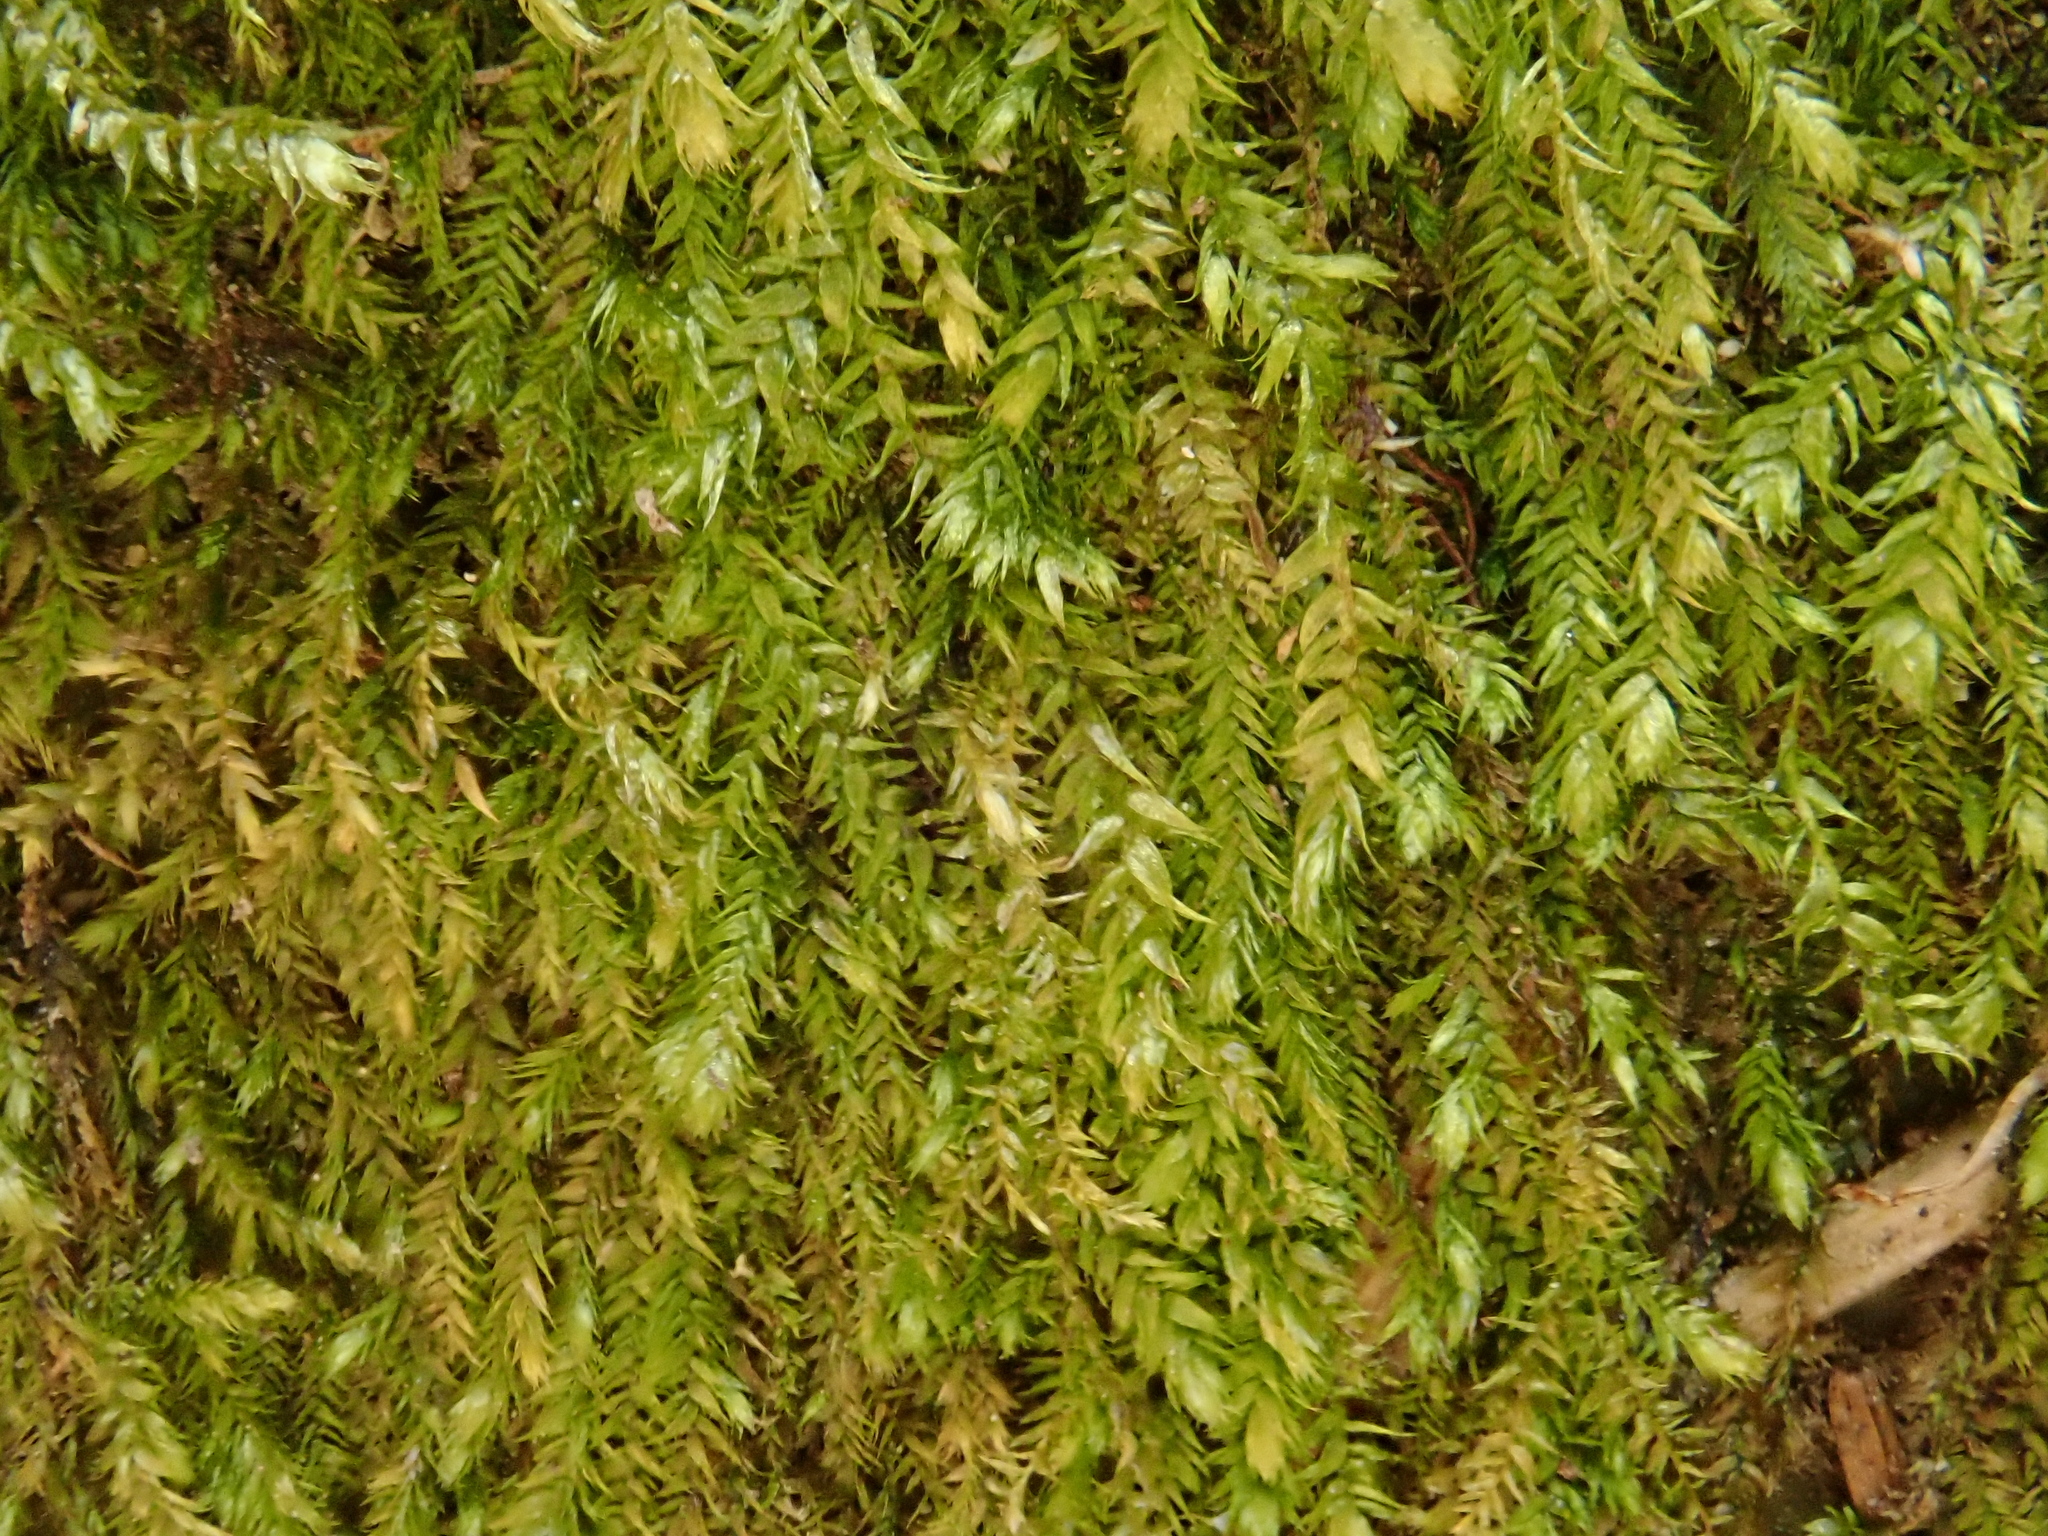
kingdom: Plantae
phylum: Bryophyta
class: Bryopsida
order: Hypnales
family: Taxiphyllaceae
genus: Taxiphyllum
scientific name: Taxiphyllum wissgrillii
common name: Depressed feather-moss
